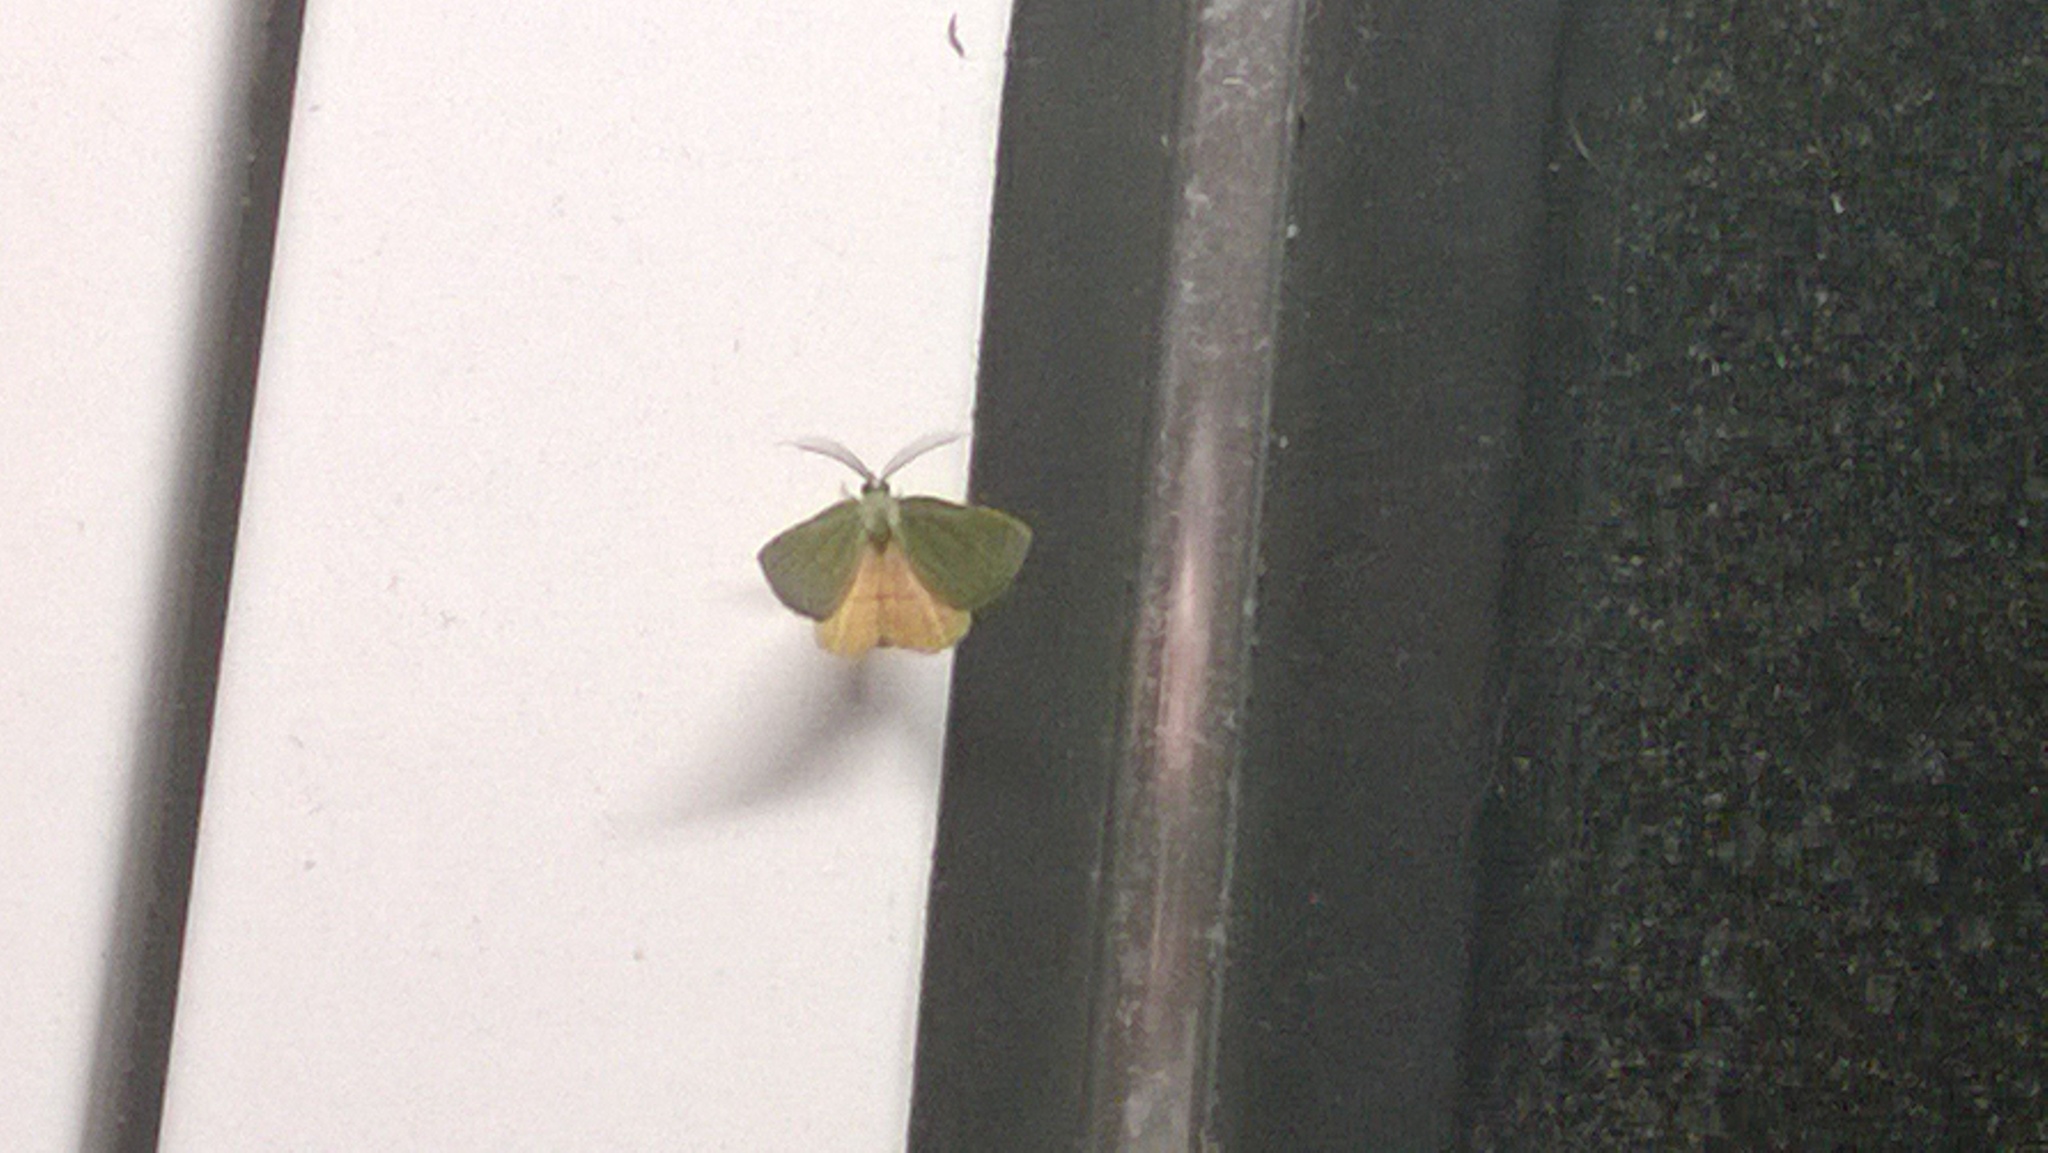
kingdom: Animalia
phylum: Arthropoda
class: Insecta
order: Lepidoptera
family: Geometridae
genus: Chloraspilates
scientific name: Chloraspilates bicoloraria
